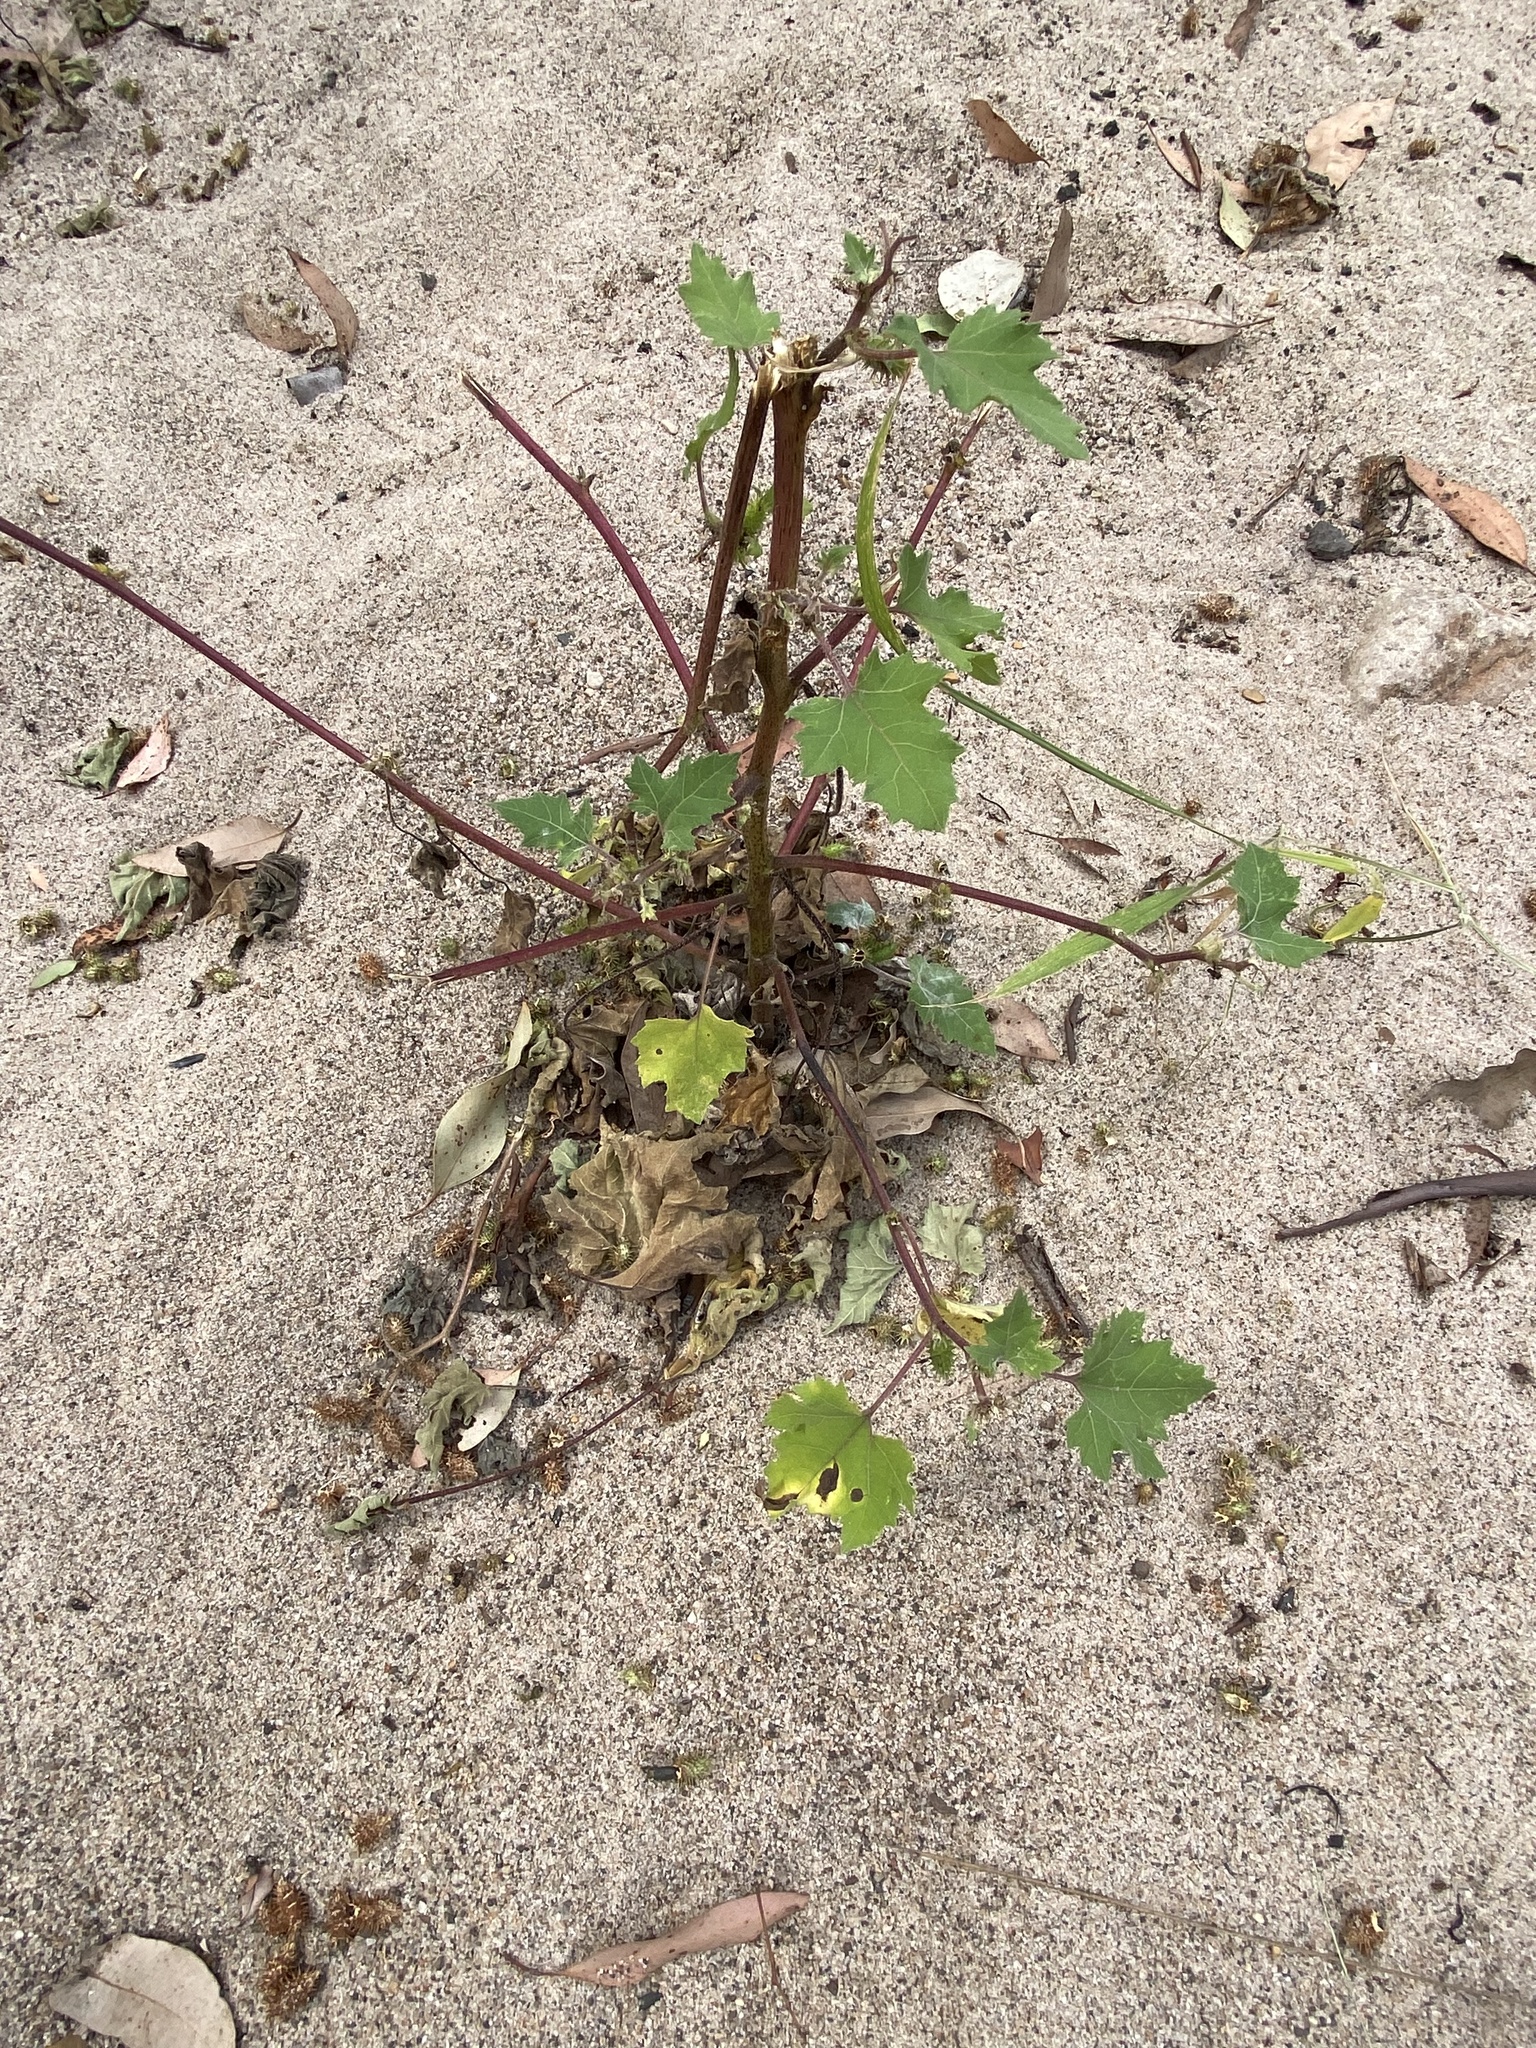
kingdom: Plantae
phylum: Tracheophyta
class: Magnoliopsida
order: Asterales
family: Asteraceae
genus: Xanthium
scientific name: Xanthium strumarium
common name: Rough cocklebur
